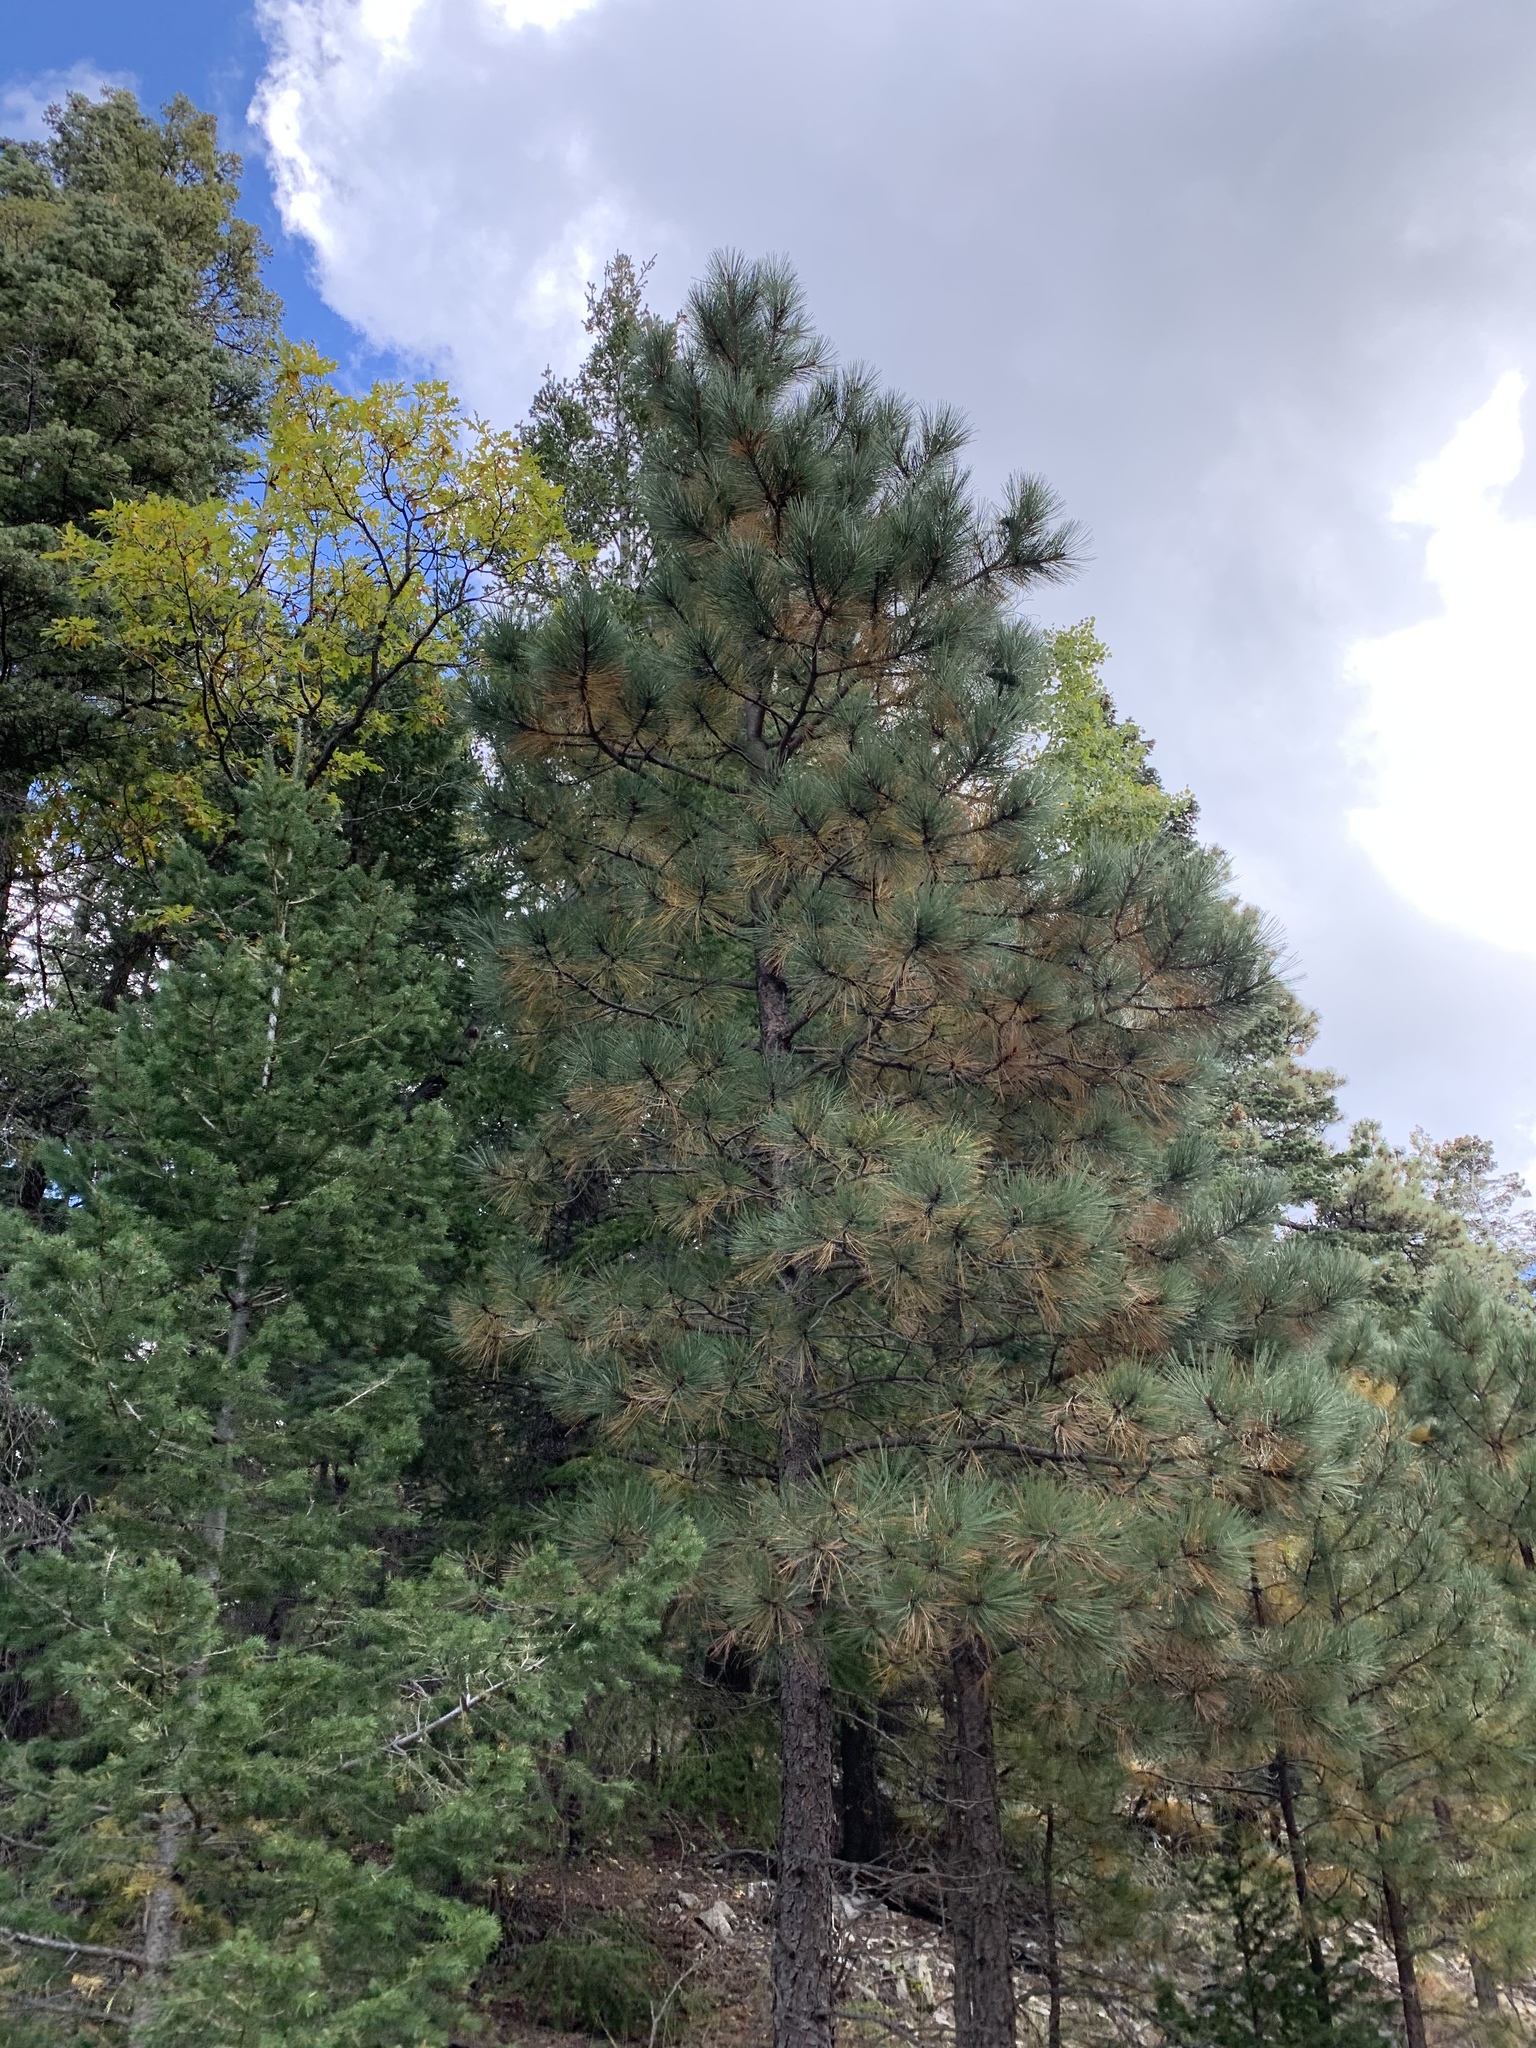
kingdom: Plantae
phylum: Tracheophyta
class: Pinopsida
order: Pinales
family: Pinaceae
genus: Pinus
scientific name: Pinus ponderosa
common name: Western yellow-pine
